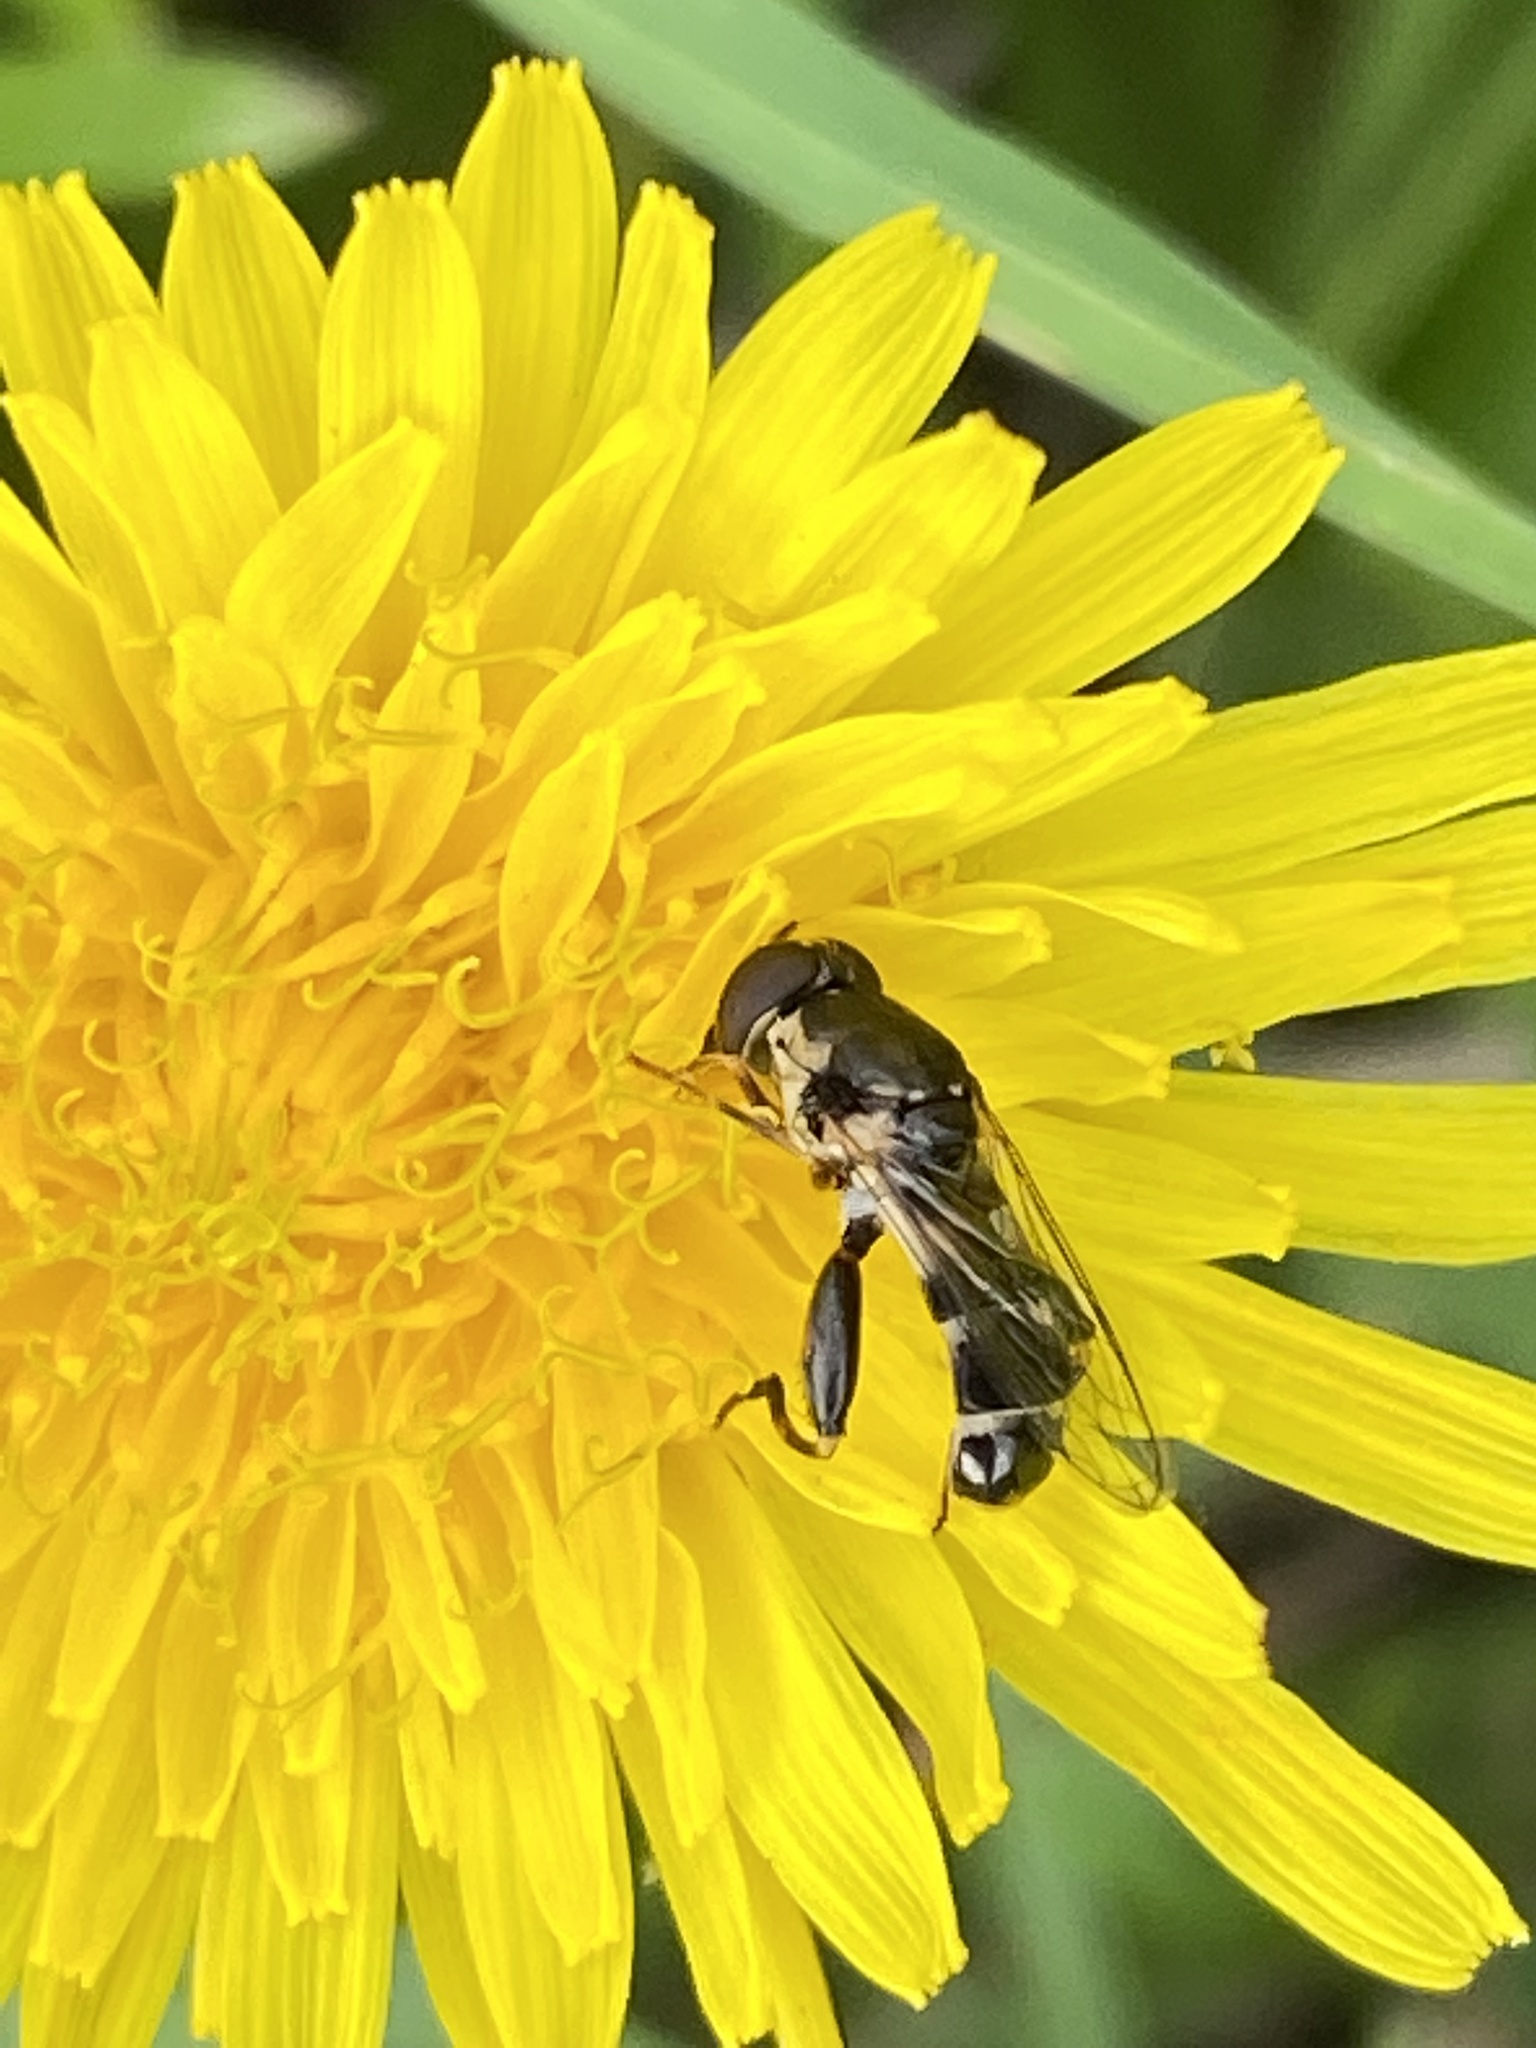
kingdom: Animalia
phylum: Arthropoda
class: Insecta
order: Diptera
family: Syrphidae
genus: Syritta
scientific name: Syritta pipiens
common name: Hover fly
